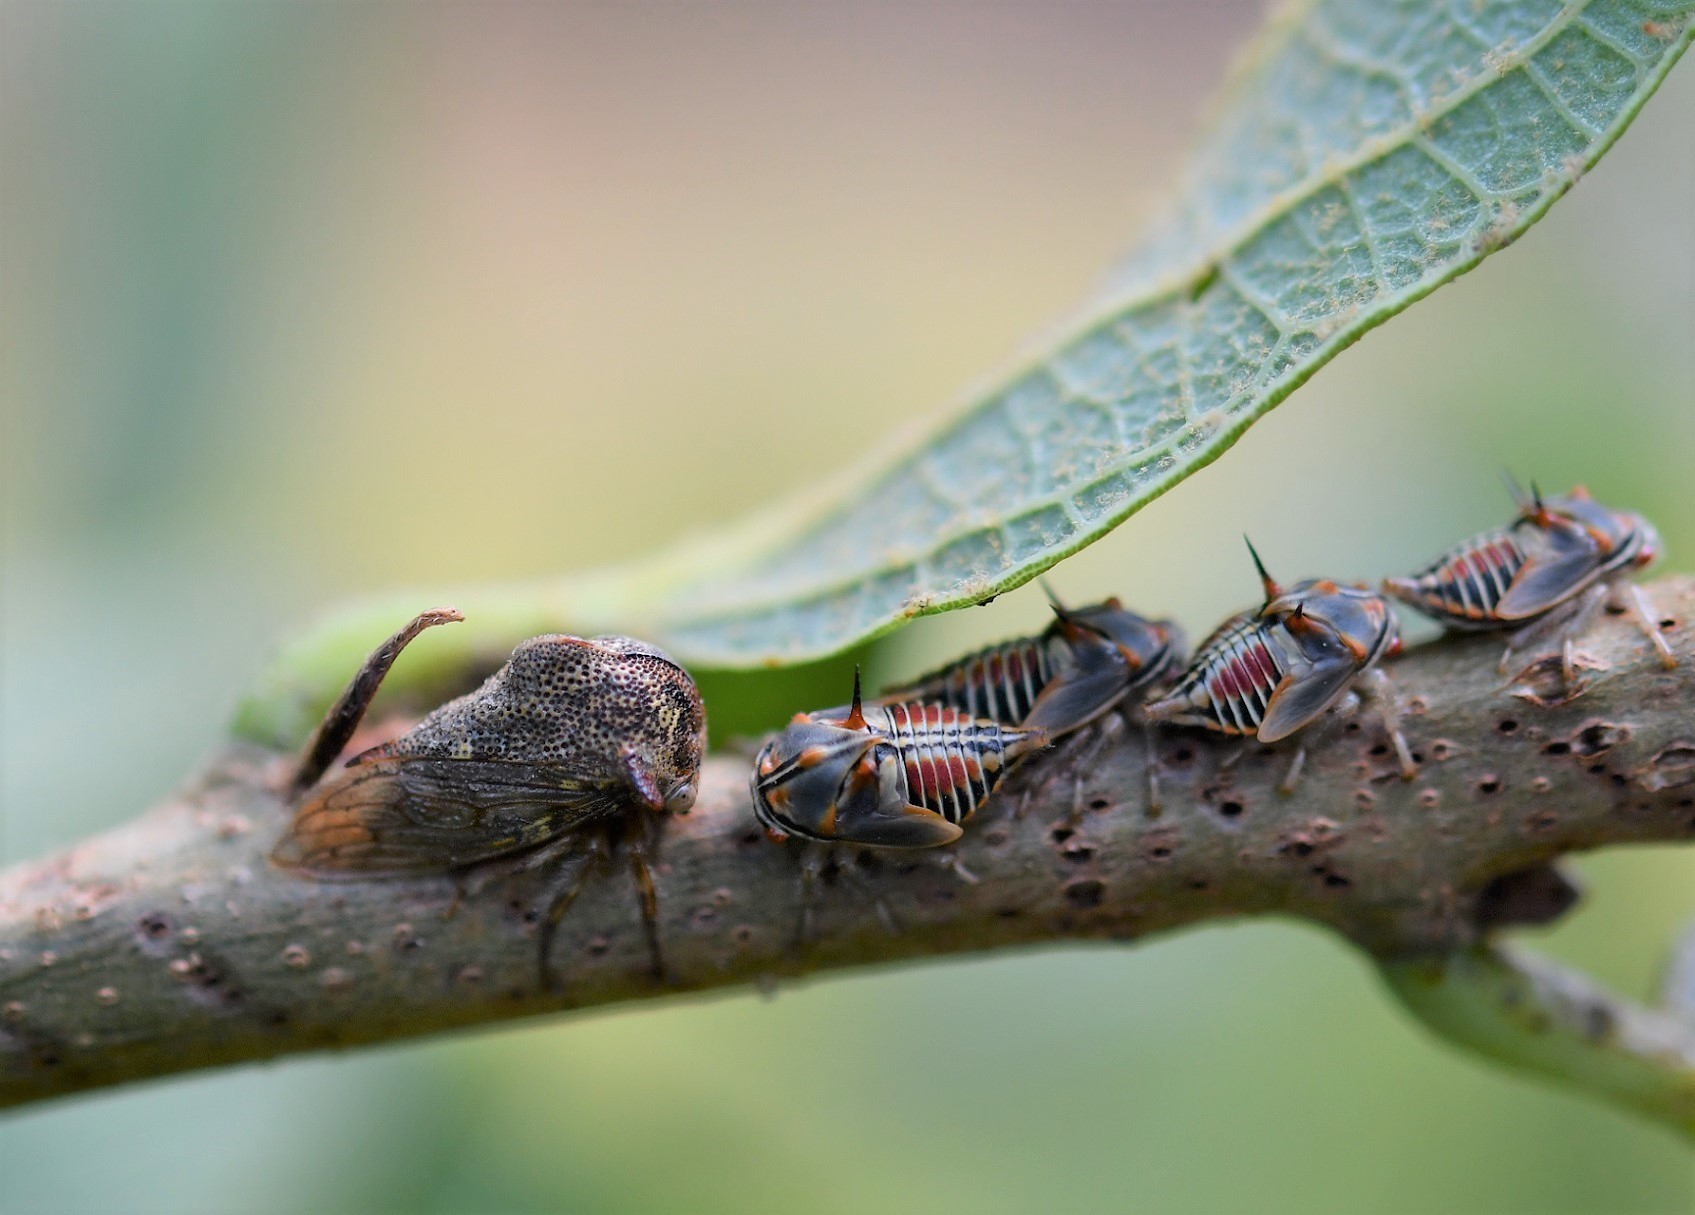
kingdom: Animalia
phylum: Arthropoda
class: Insecta
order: Hemiptera
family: Membracidae
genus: Platycotis
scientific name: Platycotis tuberculata
